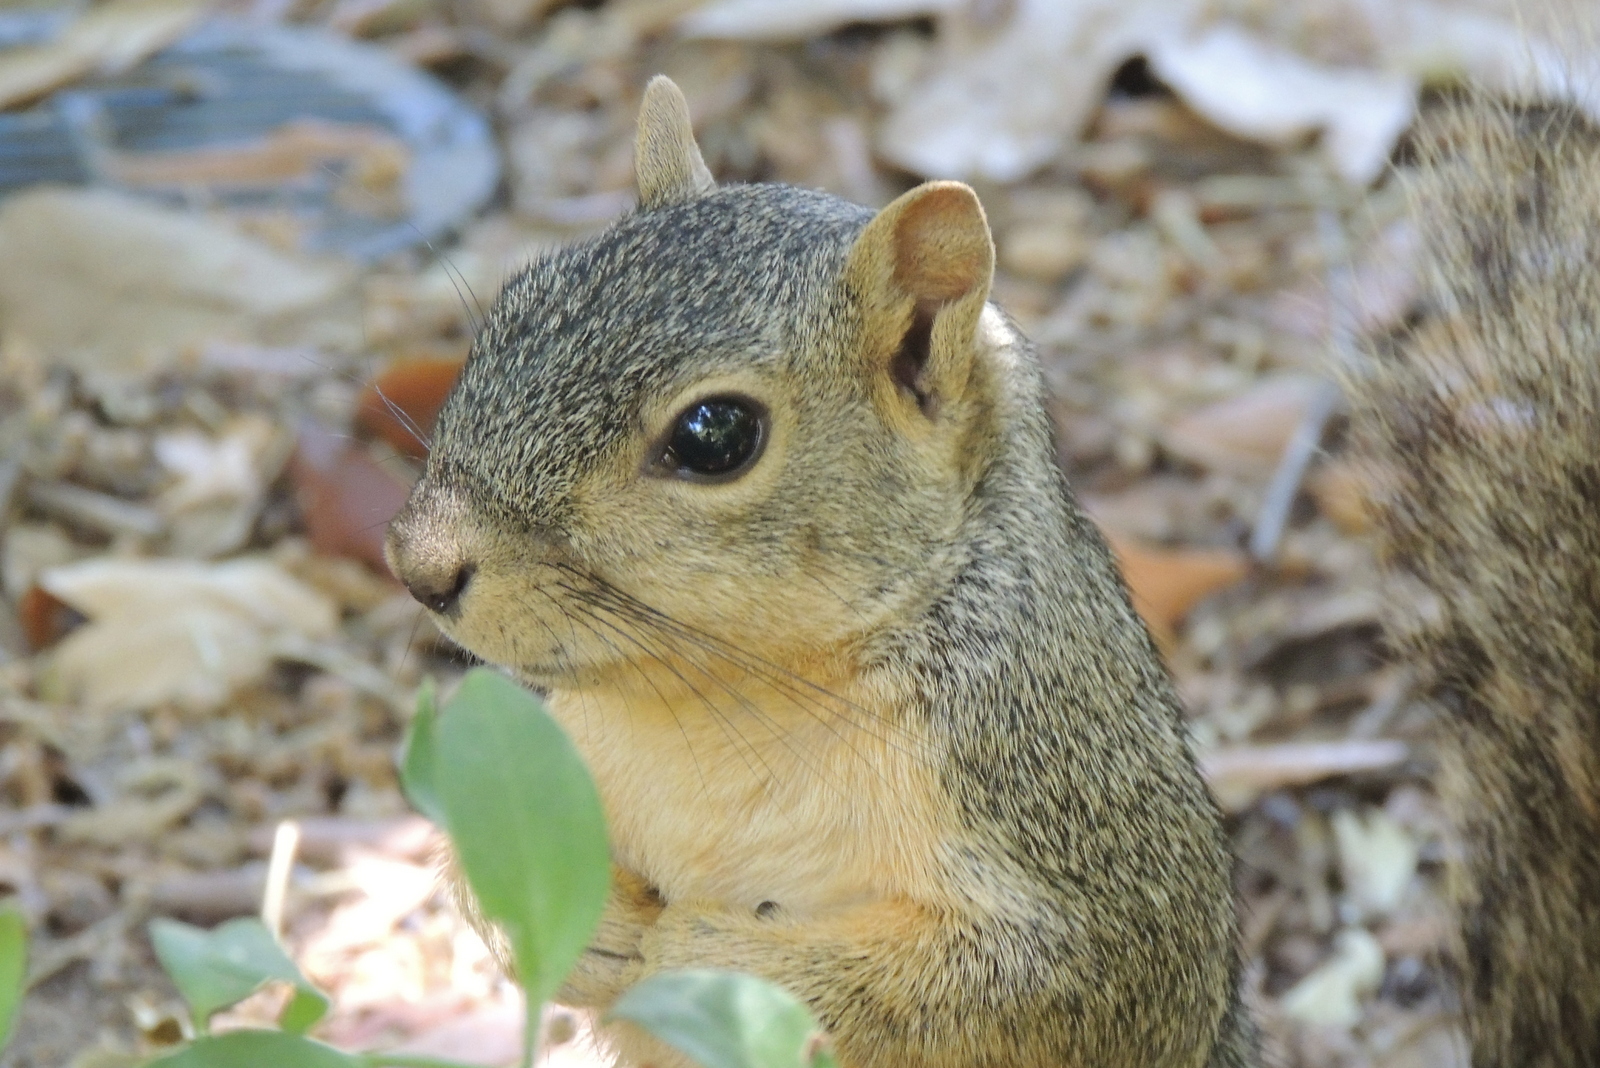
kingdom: Animalia
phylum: Chordata
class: Mammalia
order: Rodentia
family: Sciuridae
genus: Sciurus
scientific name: Sciurus niger
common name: Fox squirrel
